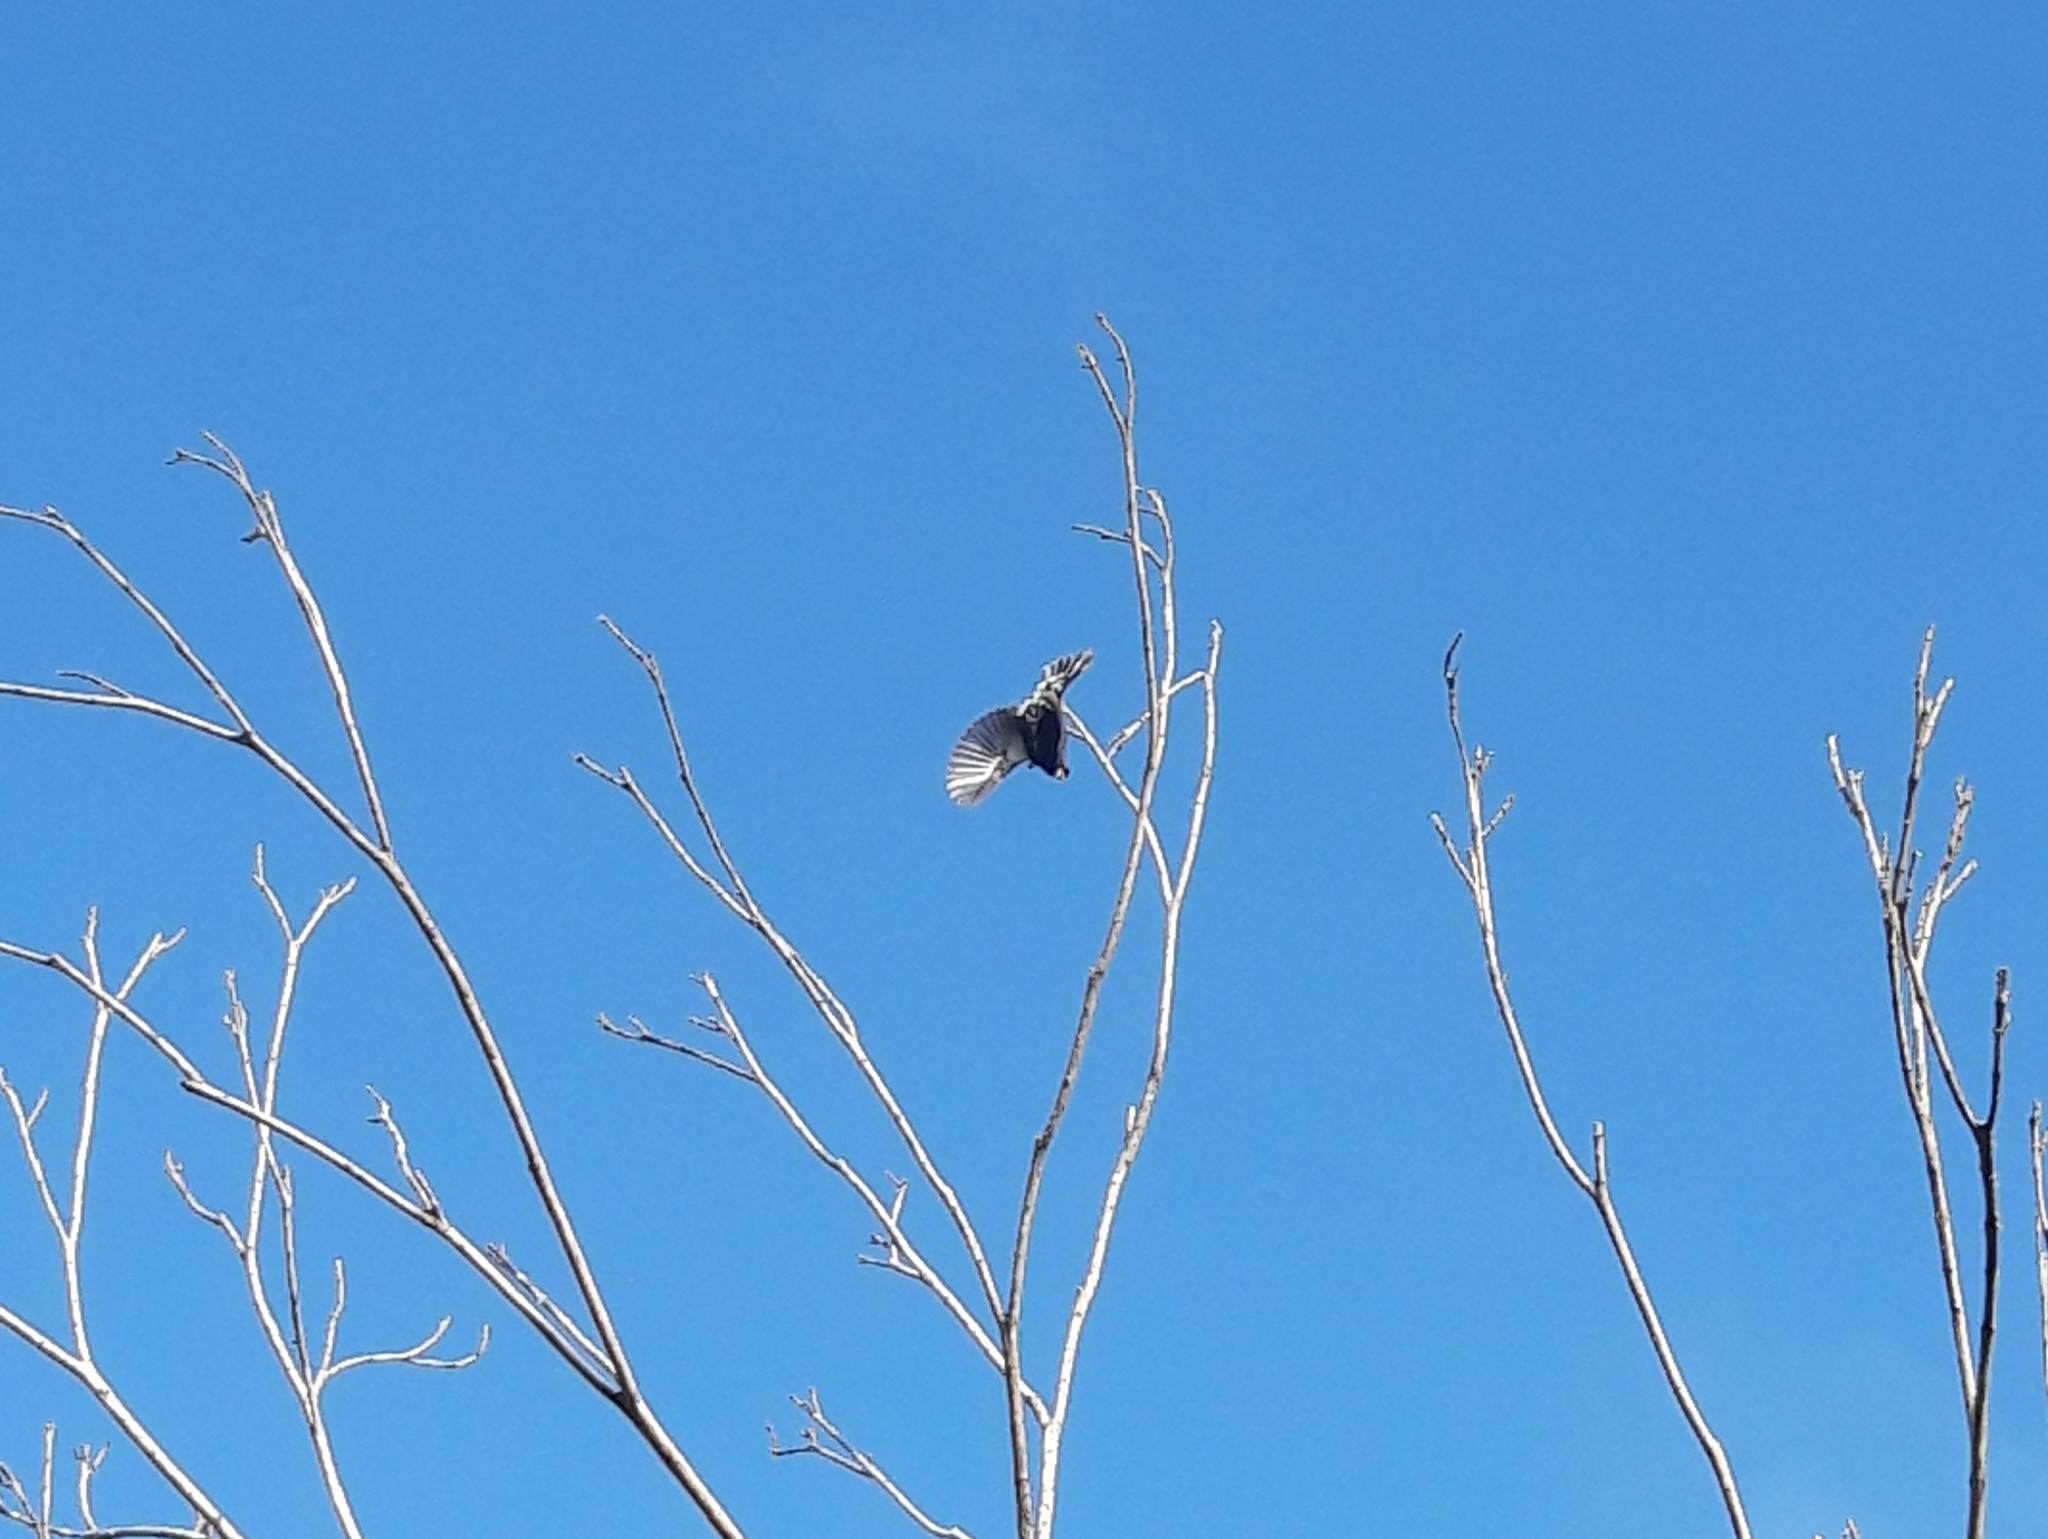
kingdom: Animalia
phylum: Chordata
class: Aves
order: Passeriformes
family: Thraupidae
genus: Volatinia
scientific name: Volatinia jacarina
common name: Blue-black grassquit
